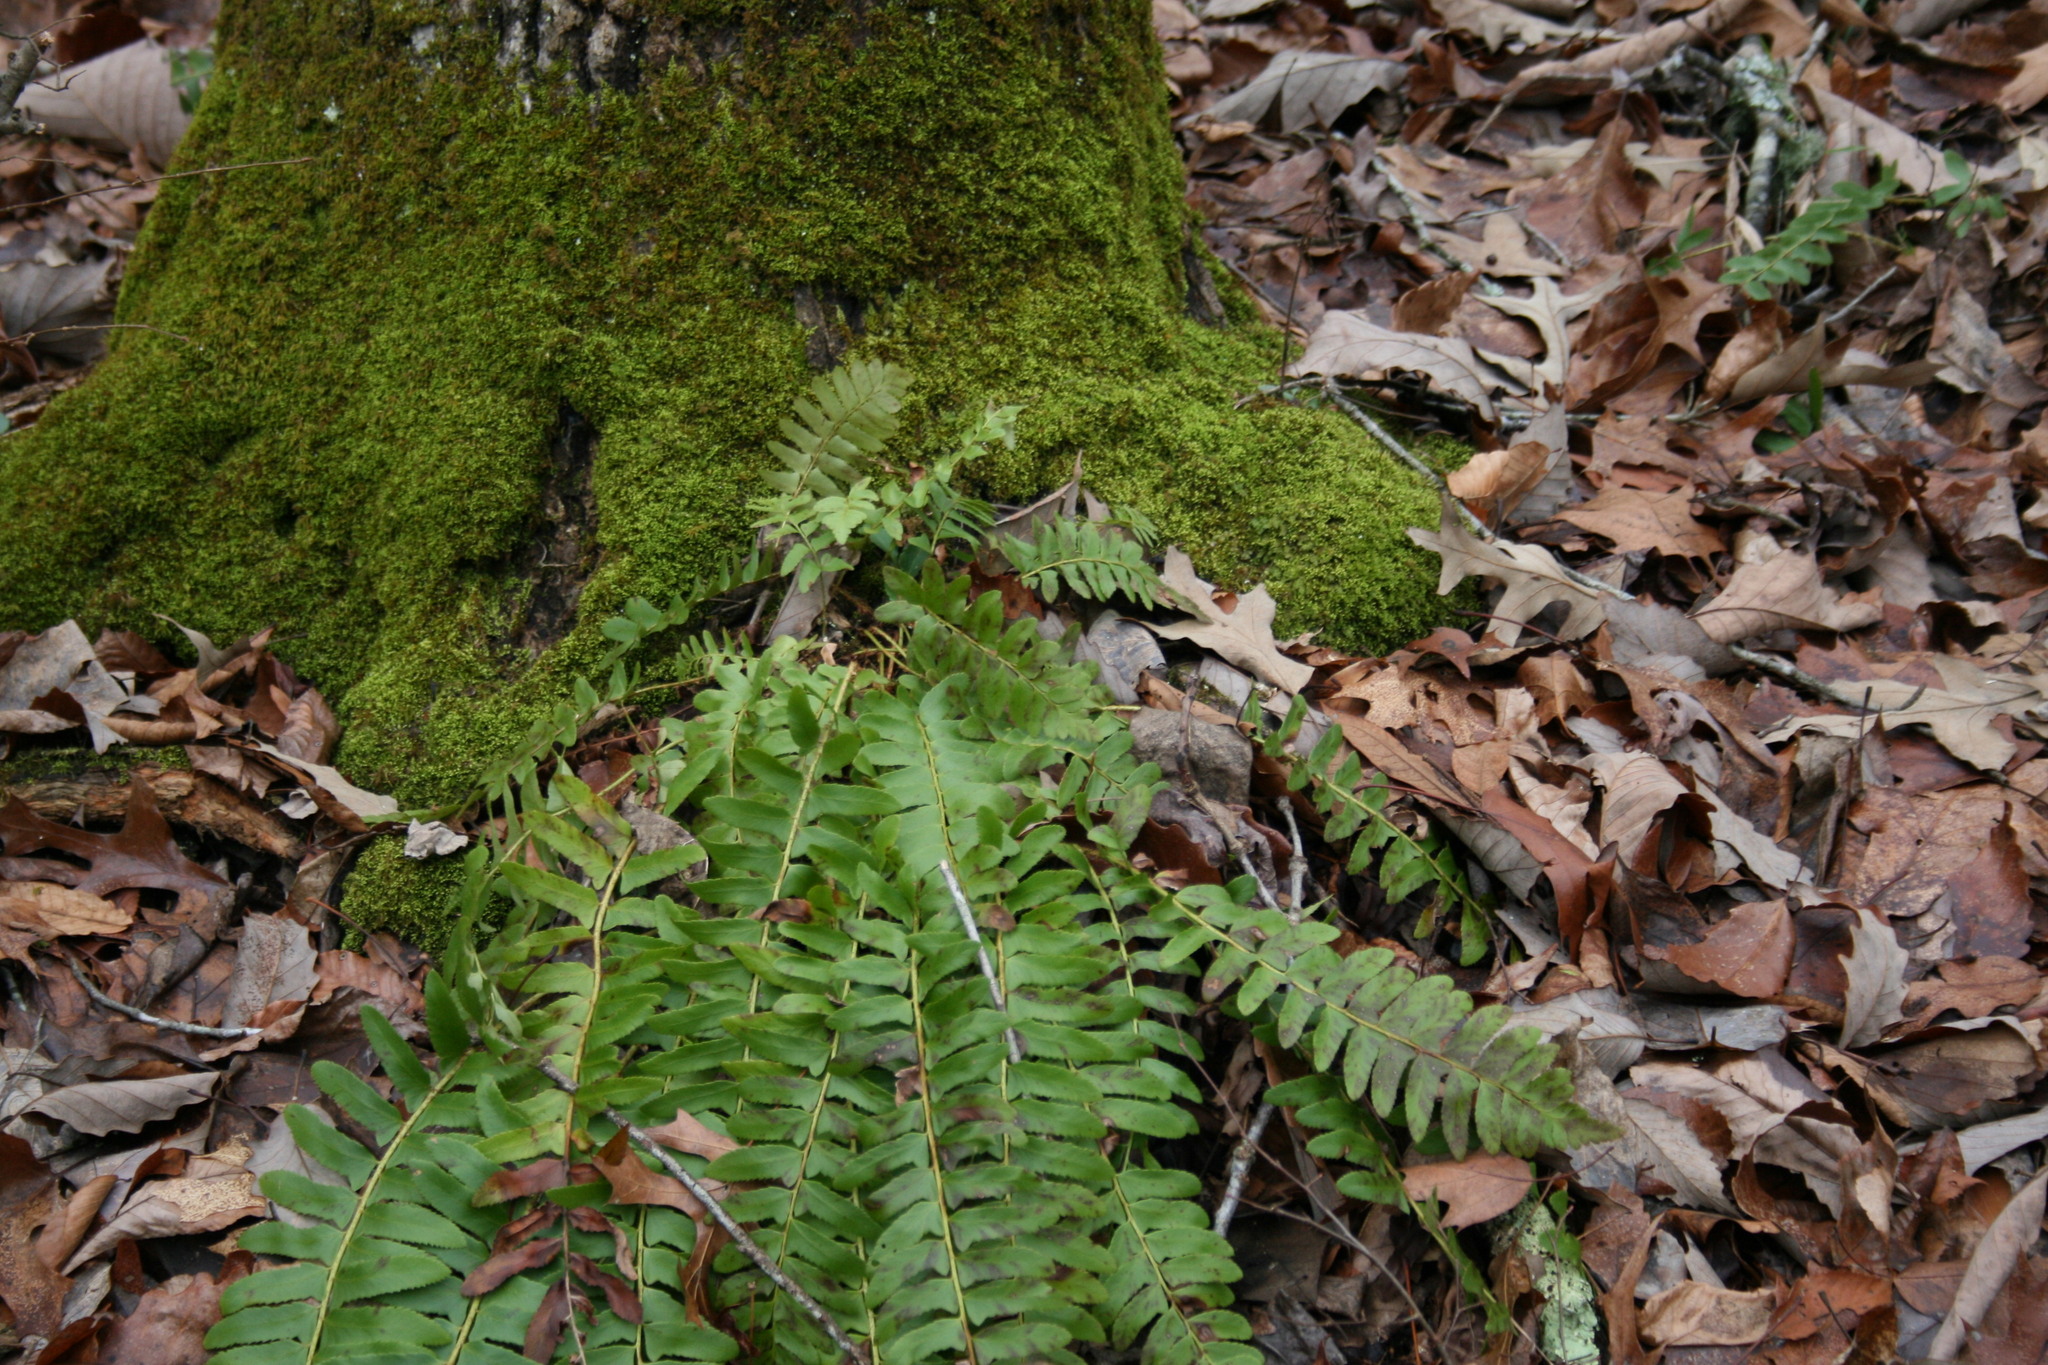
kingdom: Plantae
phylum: Tracheophyta
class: Polypodiopsida
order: Polypodiales
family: Dryopteridaceae
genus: Polystichum
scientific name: Polystichum acrostichoides
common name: Christmas fern
